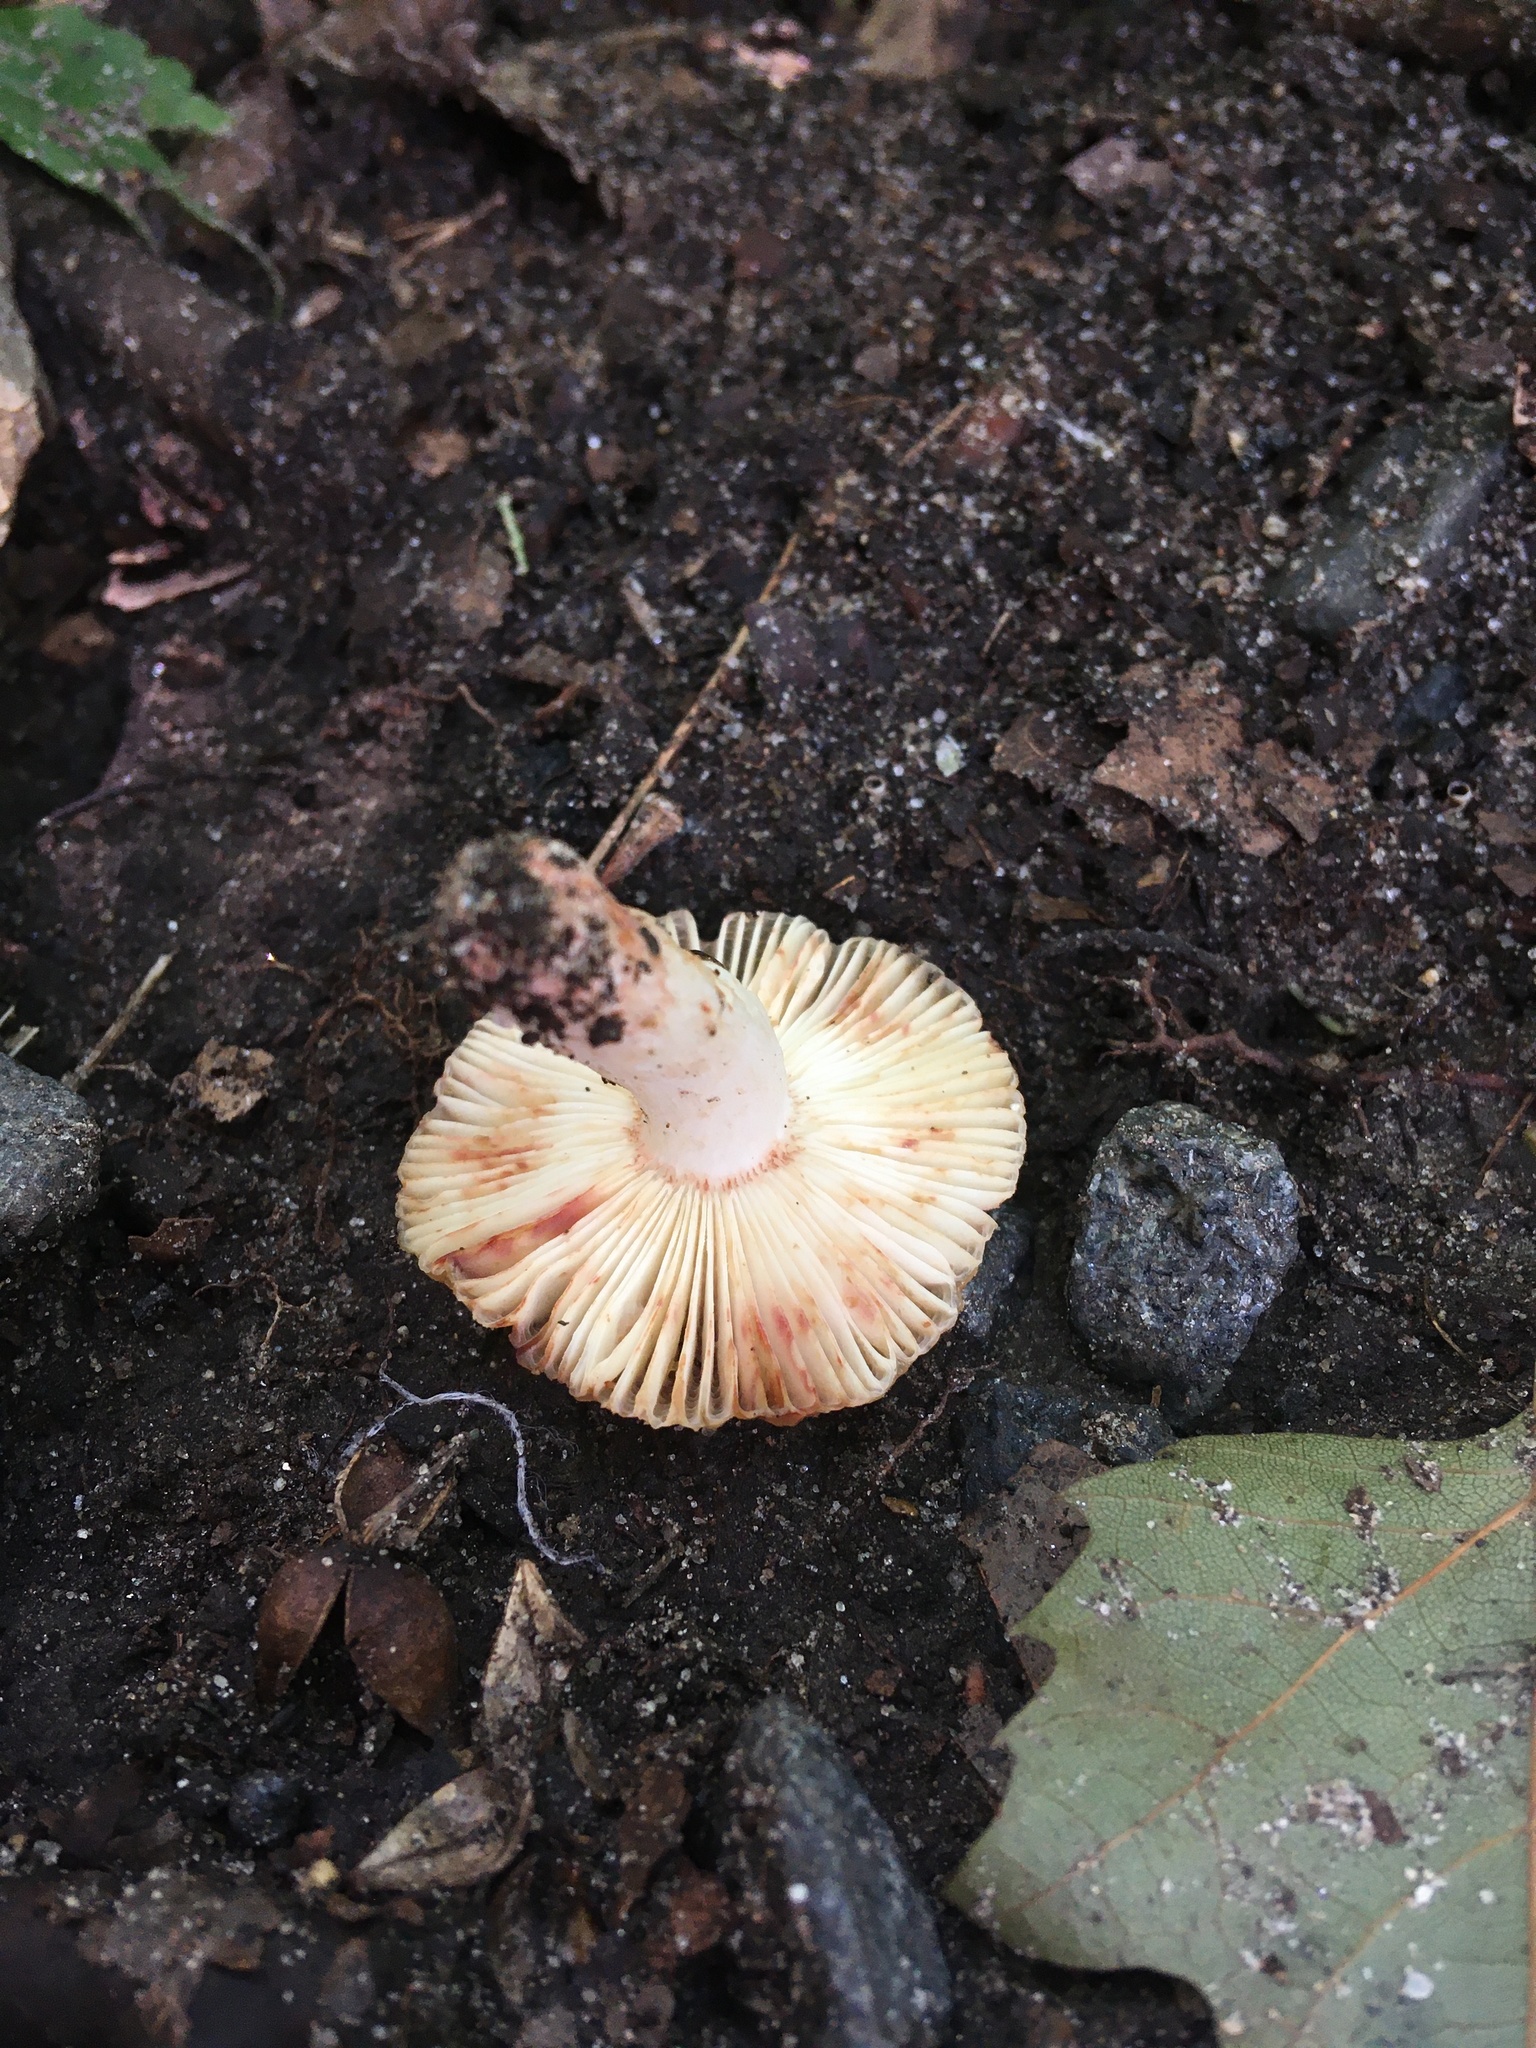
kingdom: Fungi
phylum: Basidiomycota
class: Agaricomycetes
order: Russulales
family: Russulaceae
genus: Russula
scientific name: Russula pectinatoides
